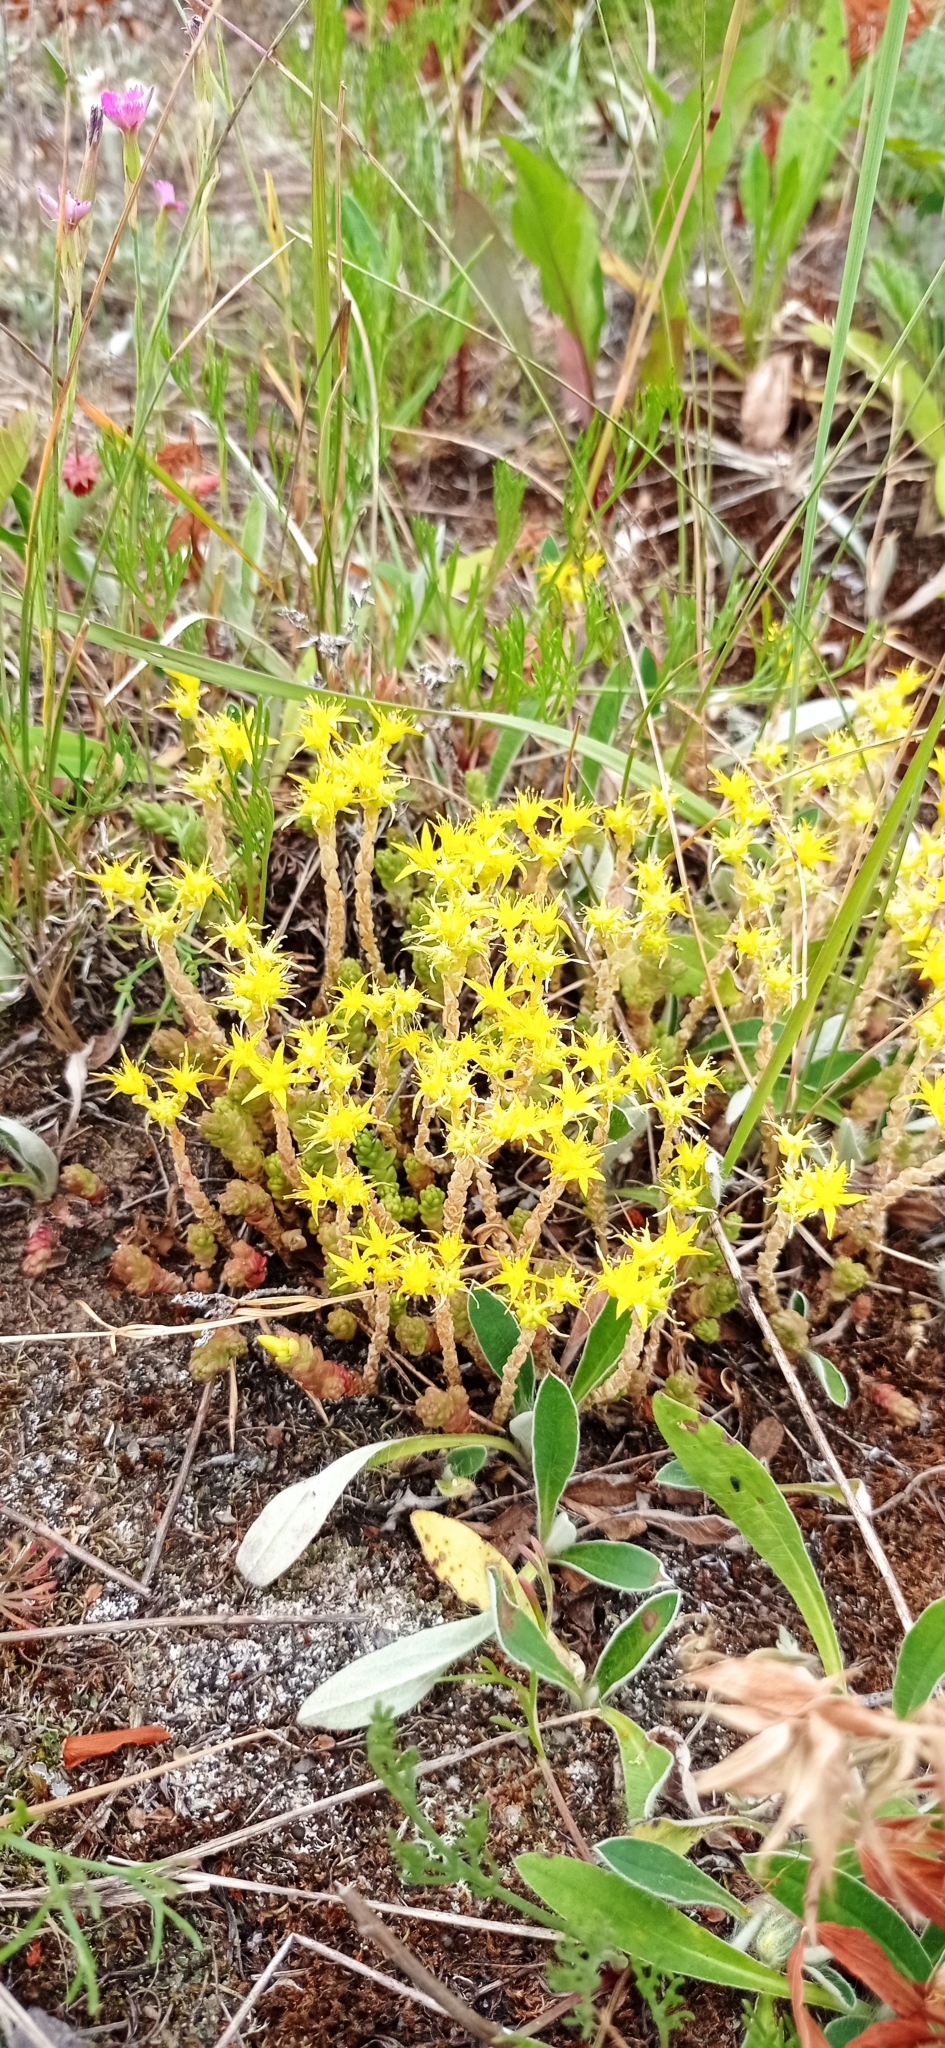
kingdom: Plantae
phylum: Tracheophyta
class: Magnoliopsida
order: Saxifragales
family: Crassulaceae
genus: Sedum
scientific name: Sedum acre
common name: Biting stonecrop
